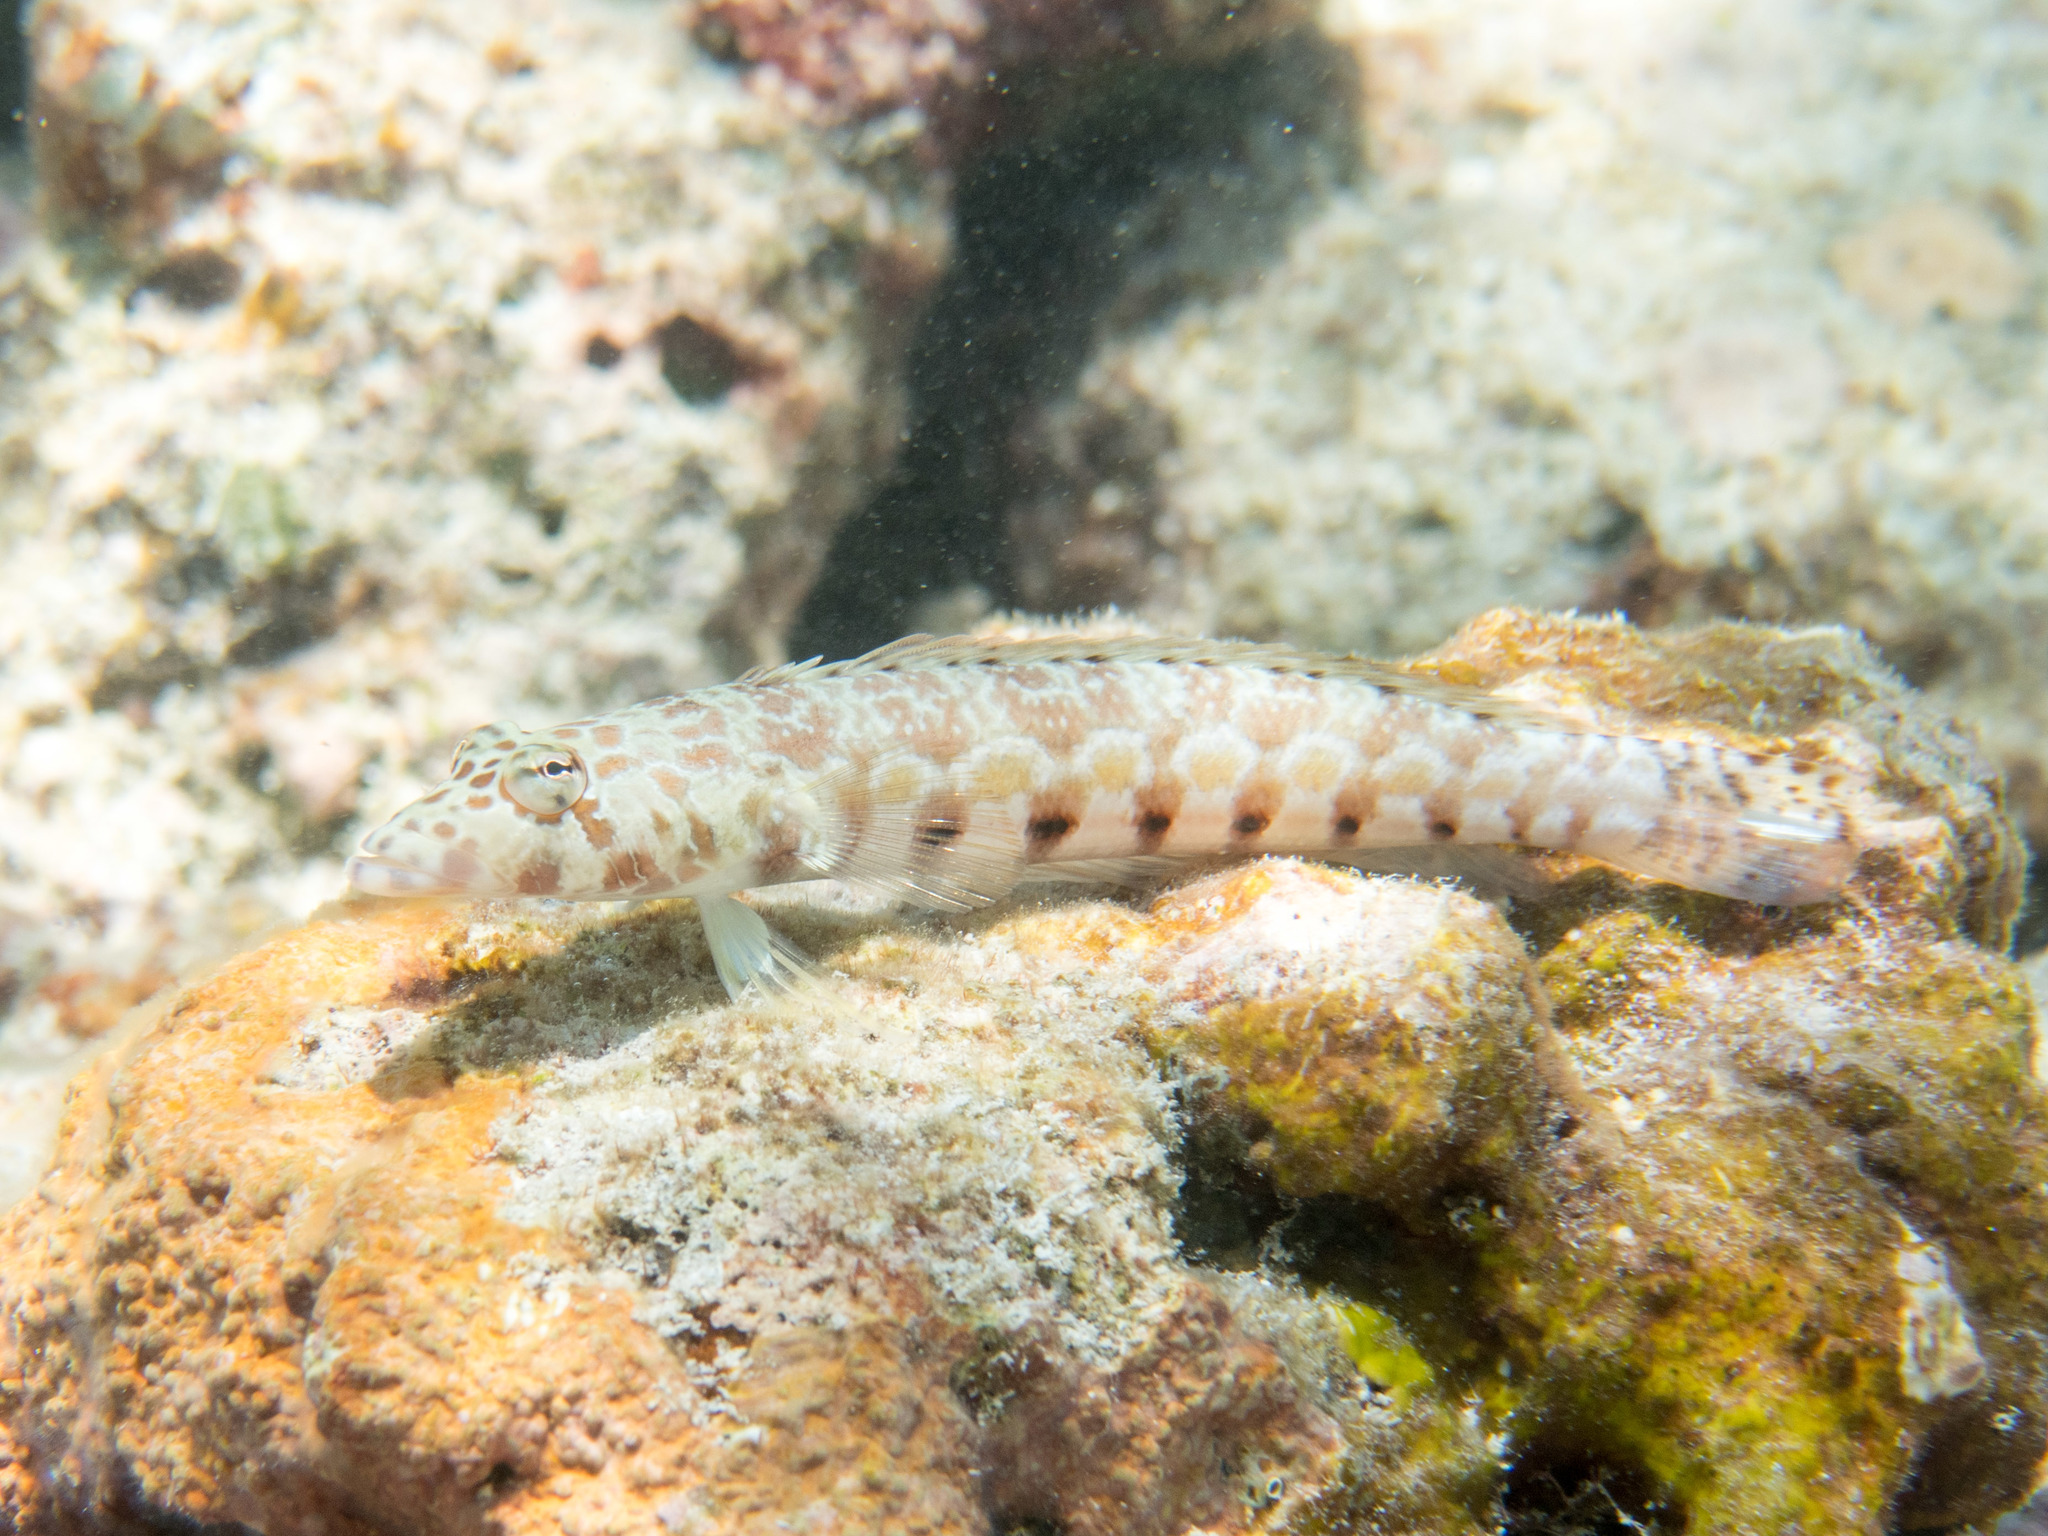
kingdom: Animalia
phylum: Chordata
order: Perciformes
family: Pinguipedidae
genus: Parapercis
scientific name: Parapercis millepunctata
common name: Black-dotted sandperch
